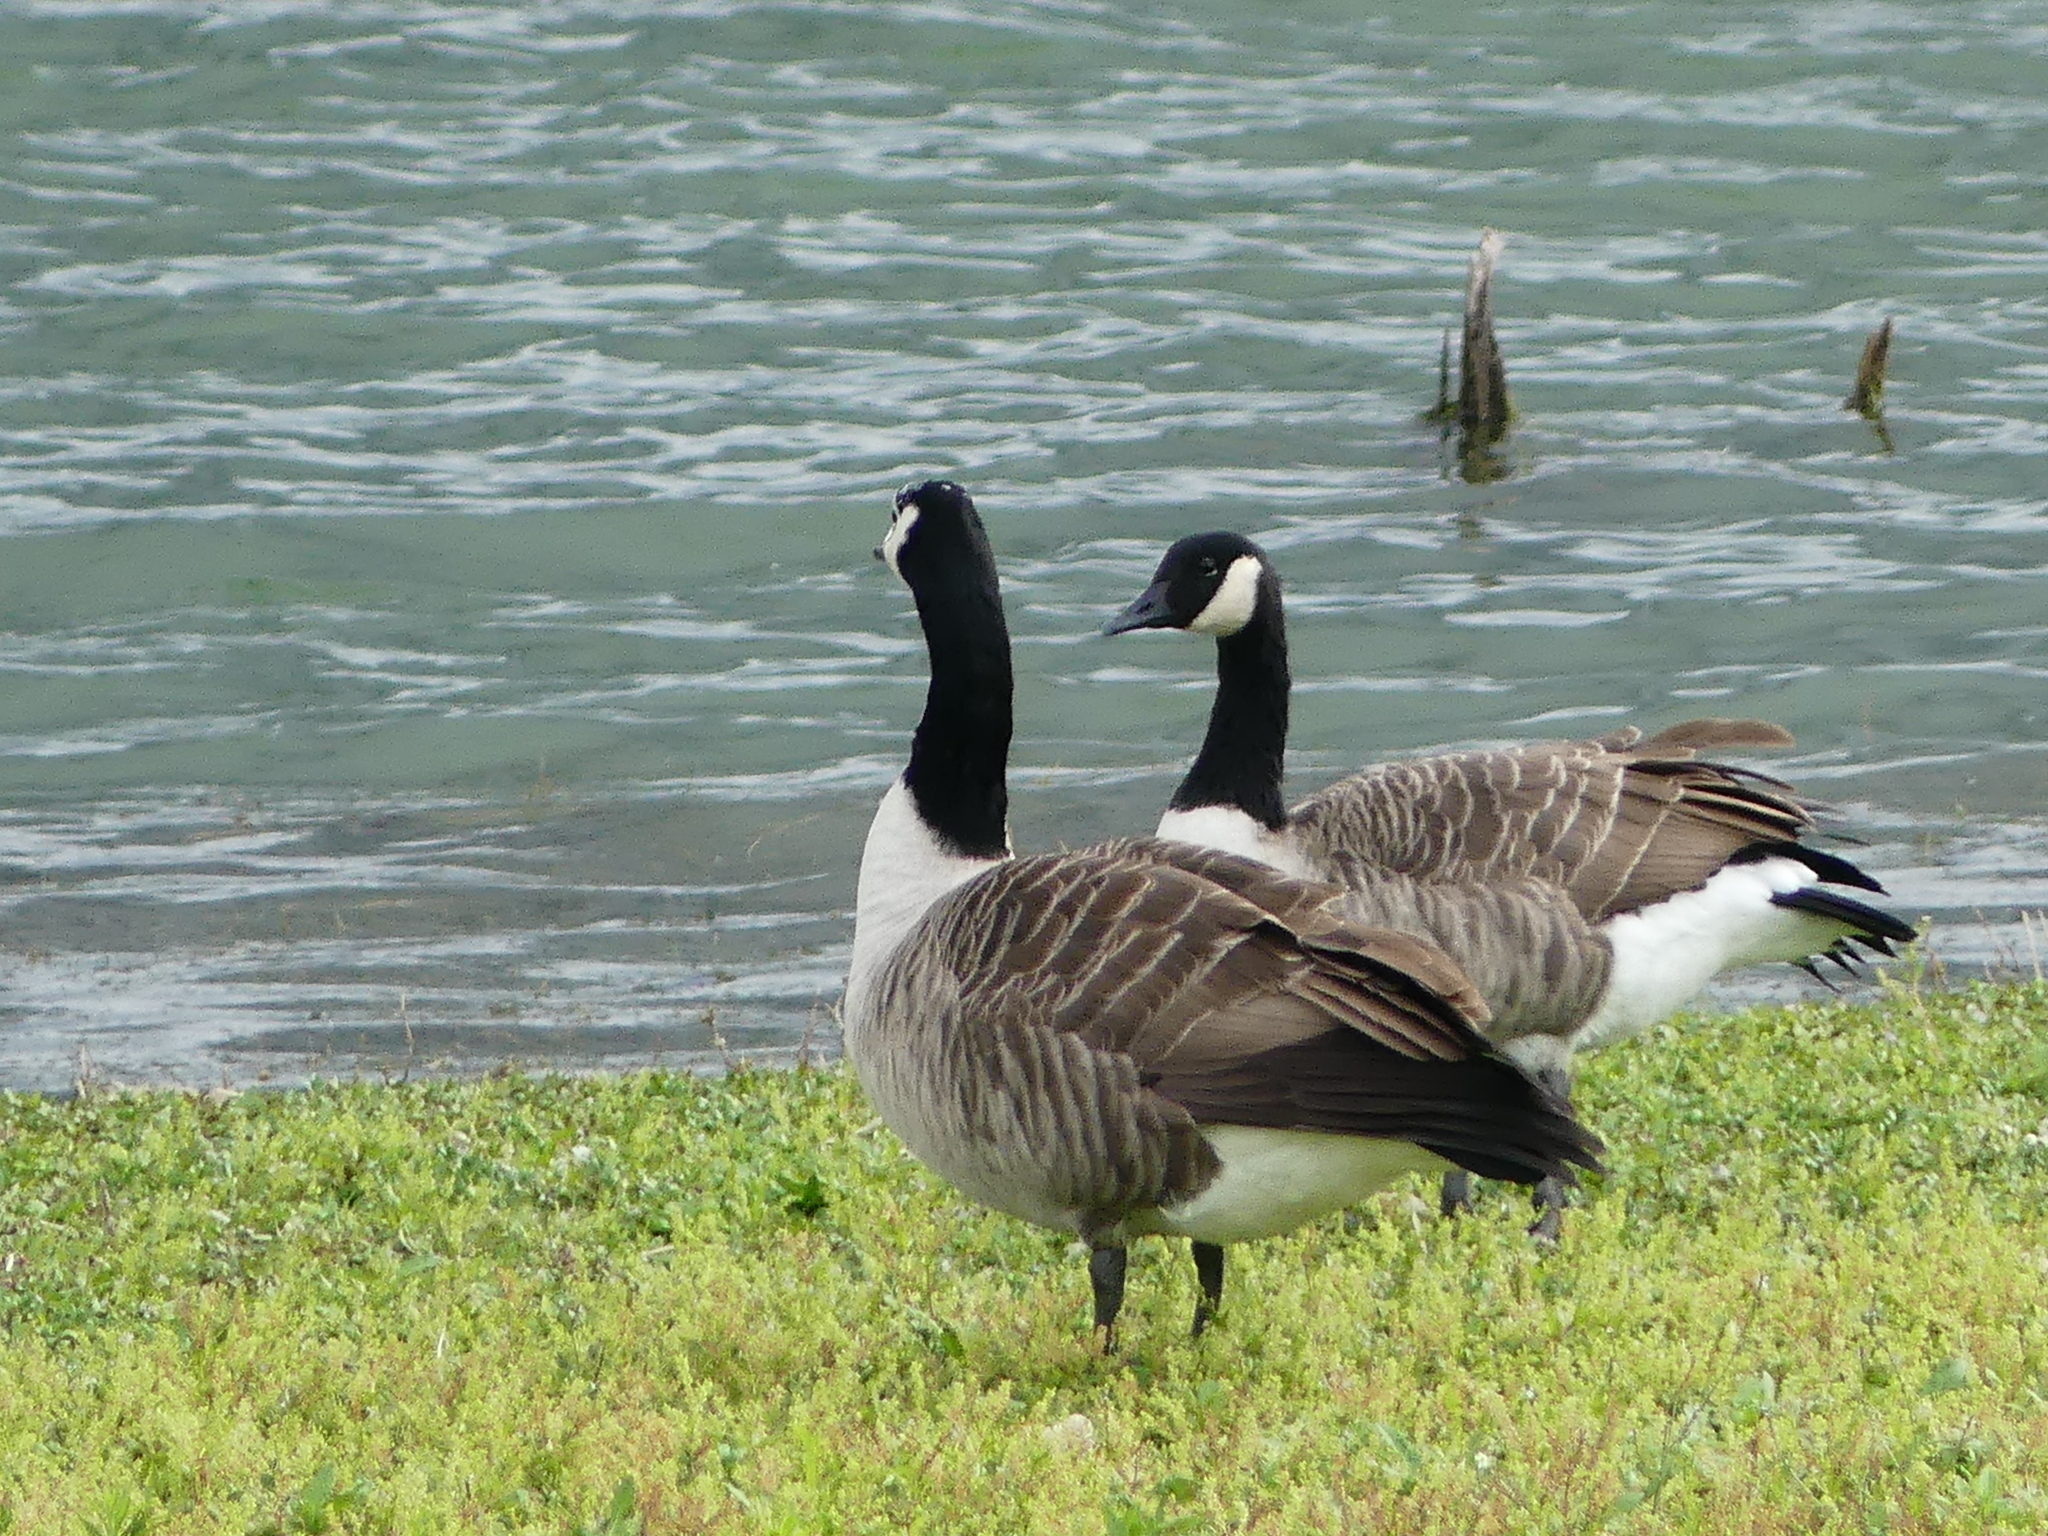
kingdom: Animalia
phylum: Chordata
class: Aves
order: Anseriformes
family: Anatidae
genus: Branta
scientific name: Branta canadensis
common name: Canada goose
